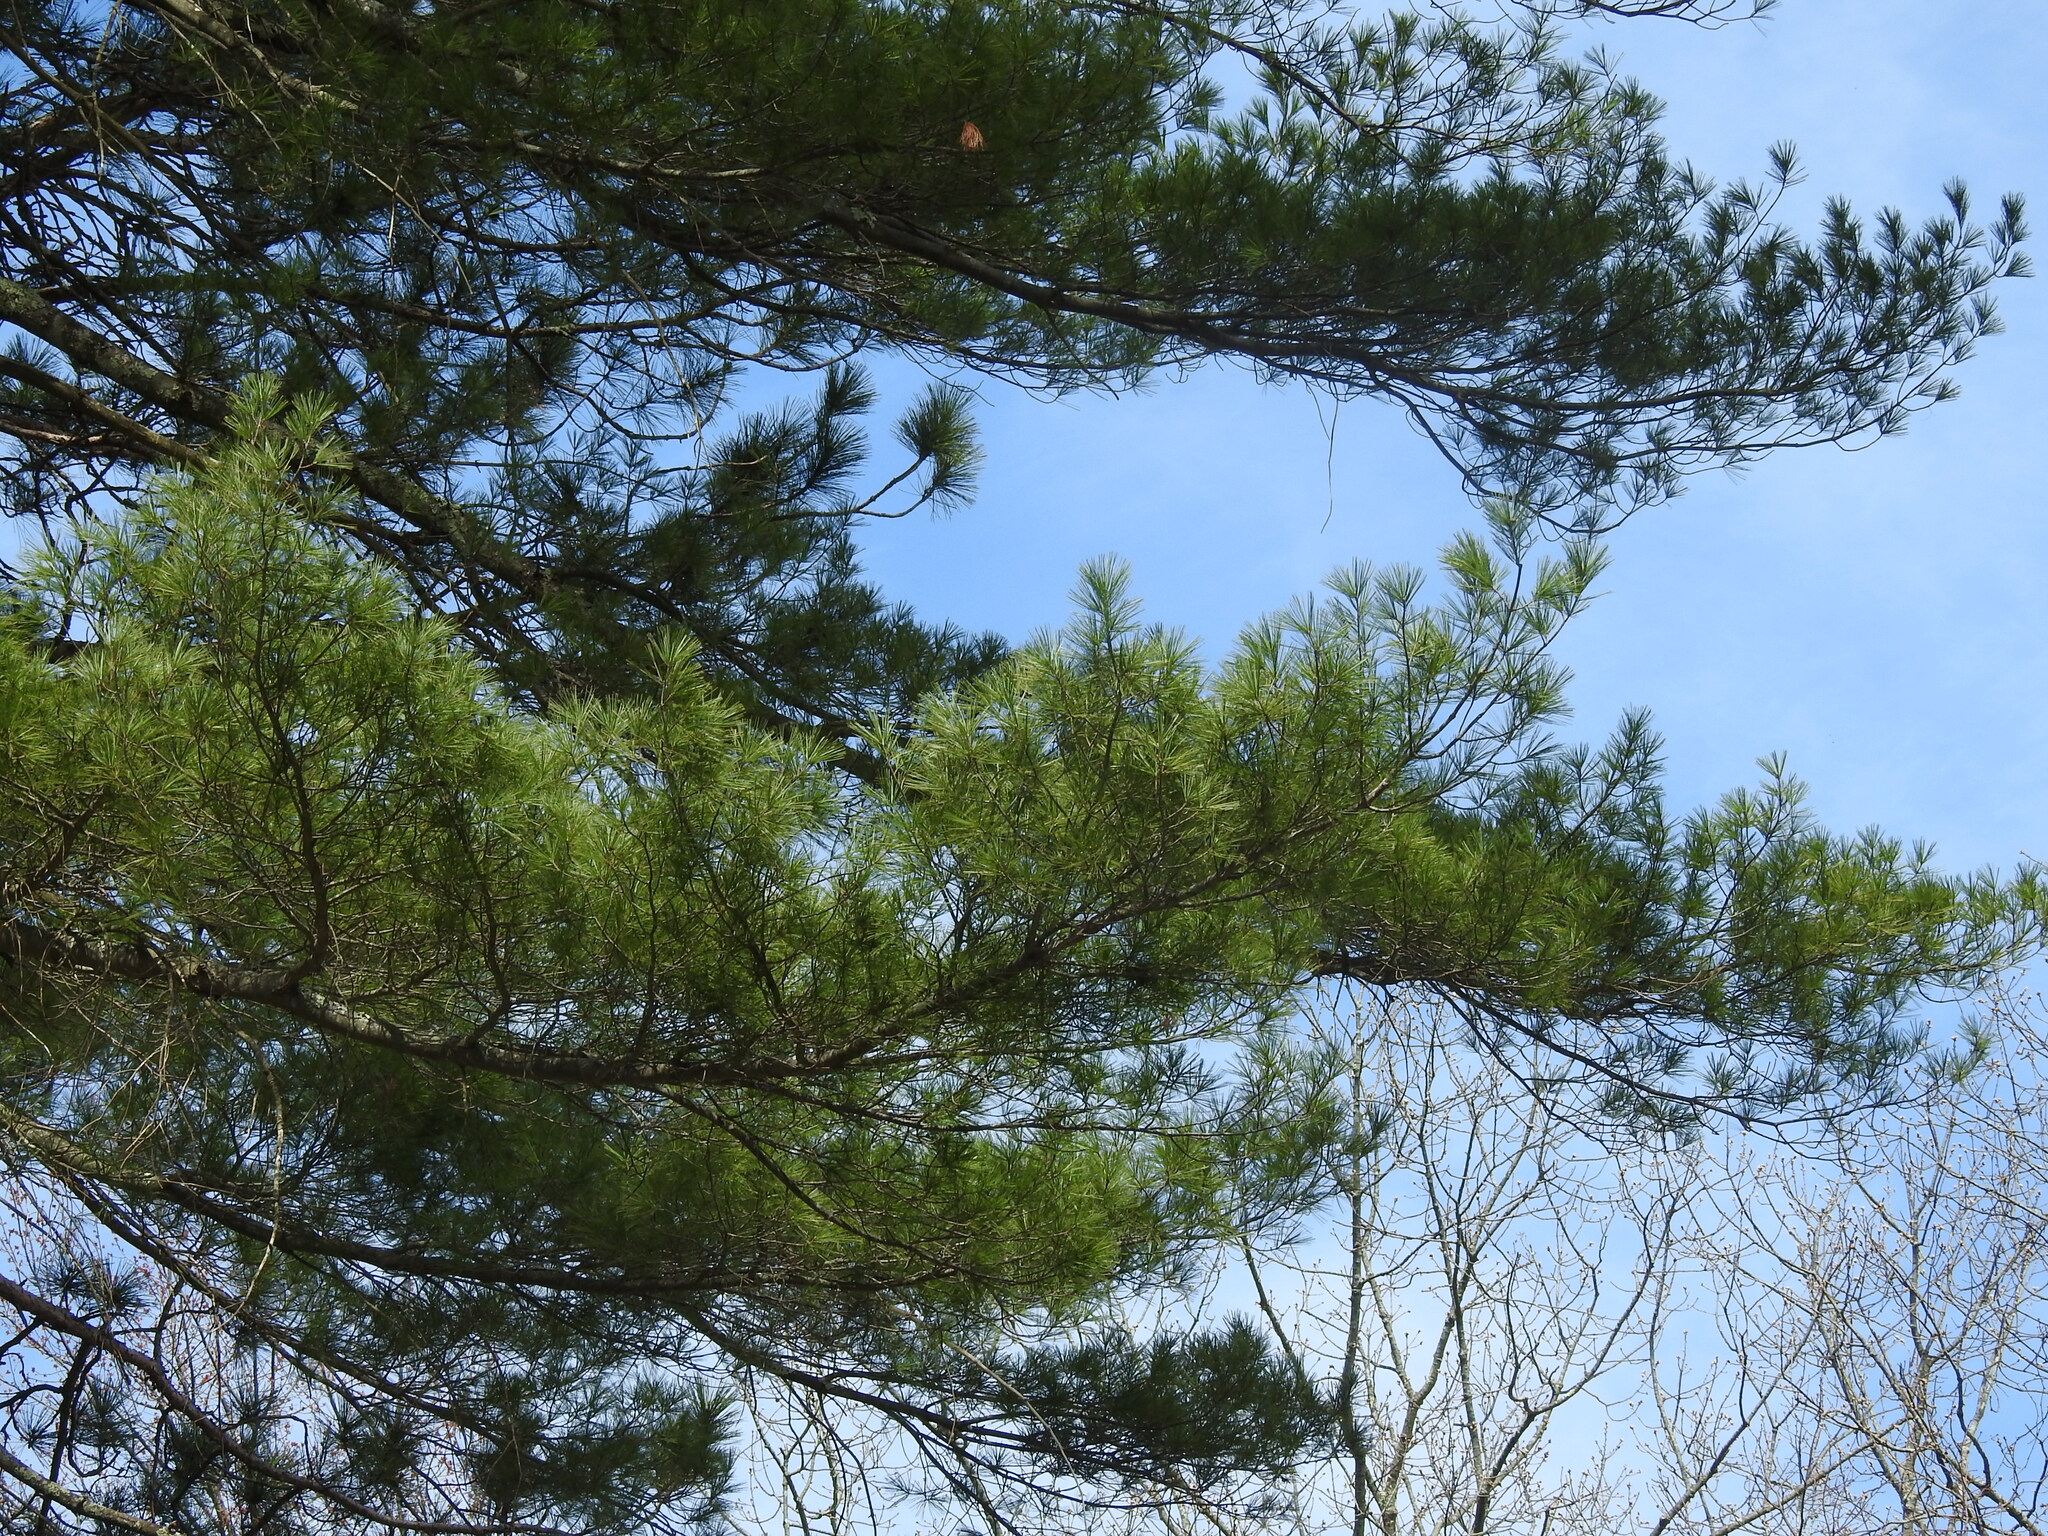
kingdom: Plantae
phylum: Tracheophyta
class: Pinopsida
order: Pinales
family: Pinaceae
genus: Pinus
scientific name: Pinus strobus
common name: Weymouth pine
